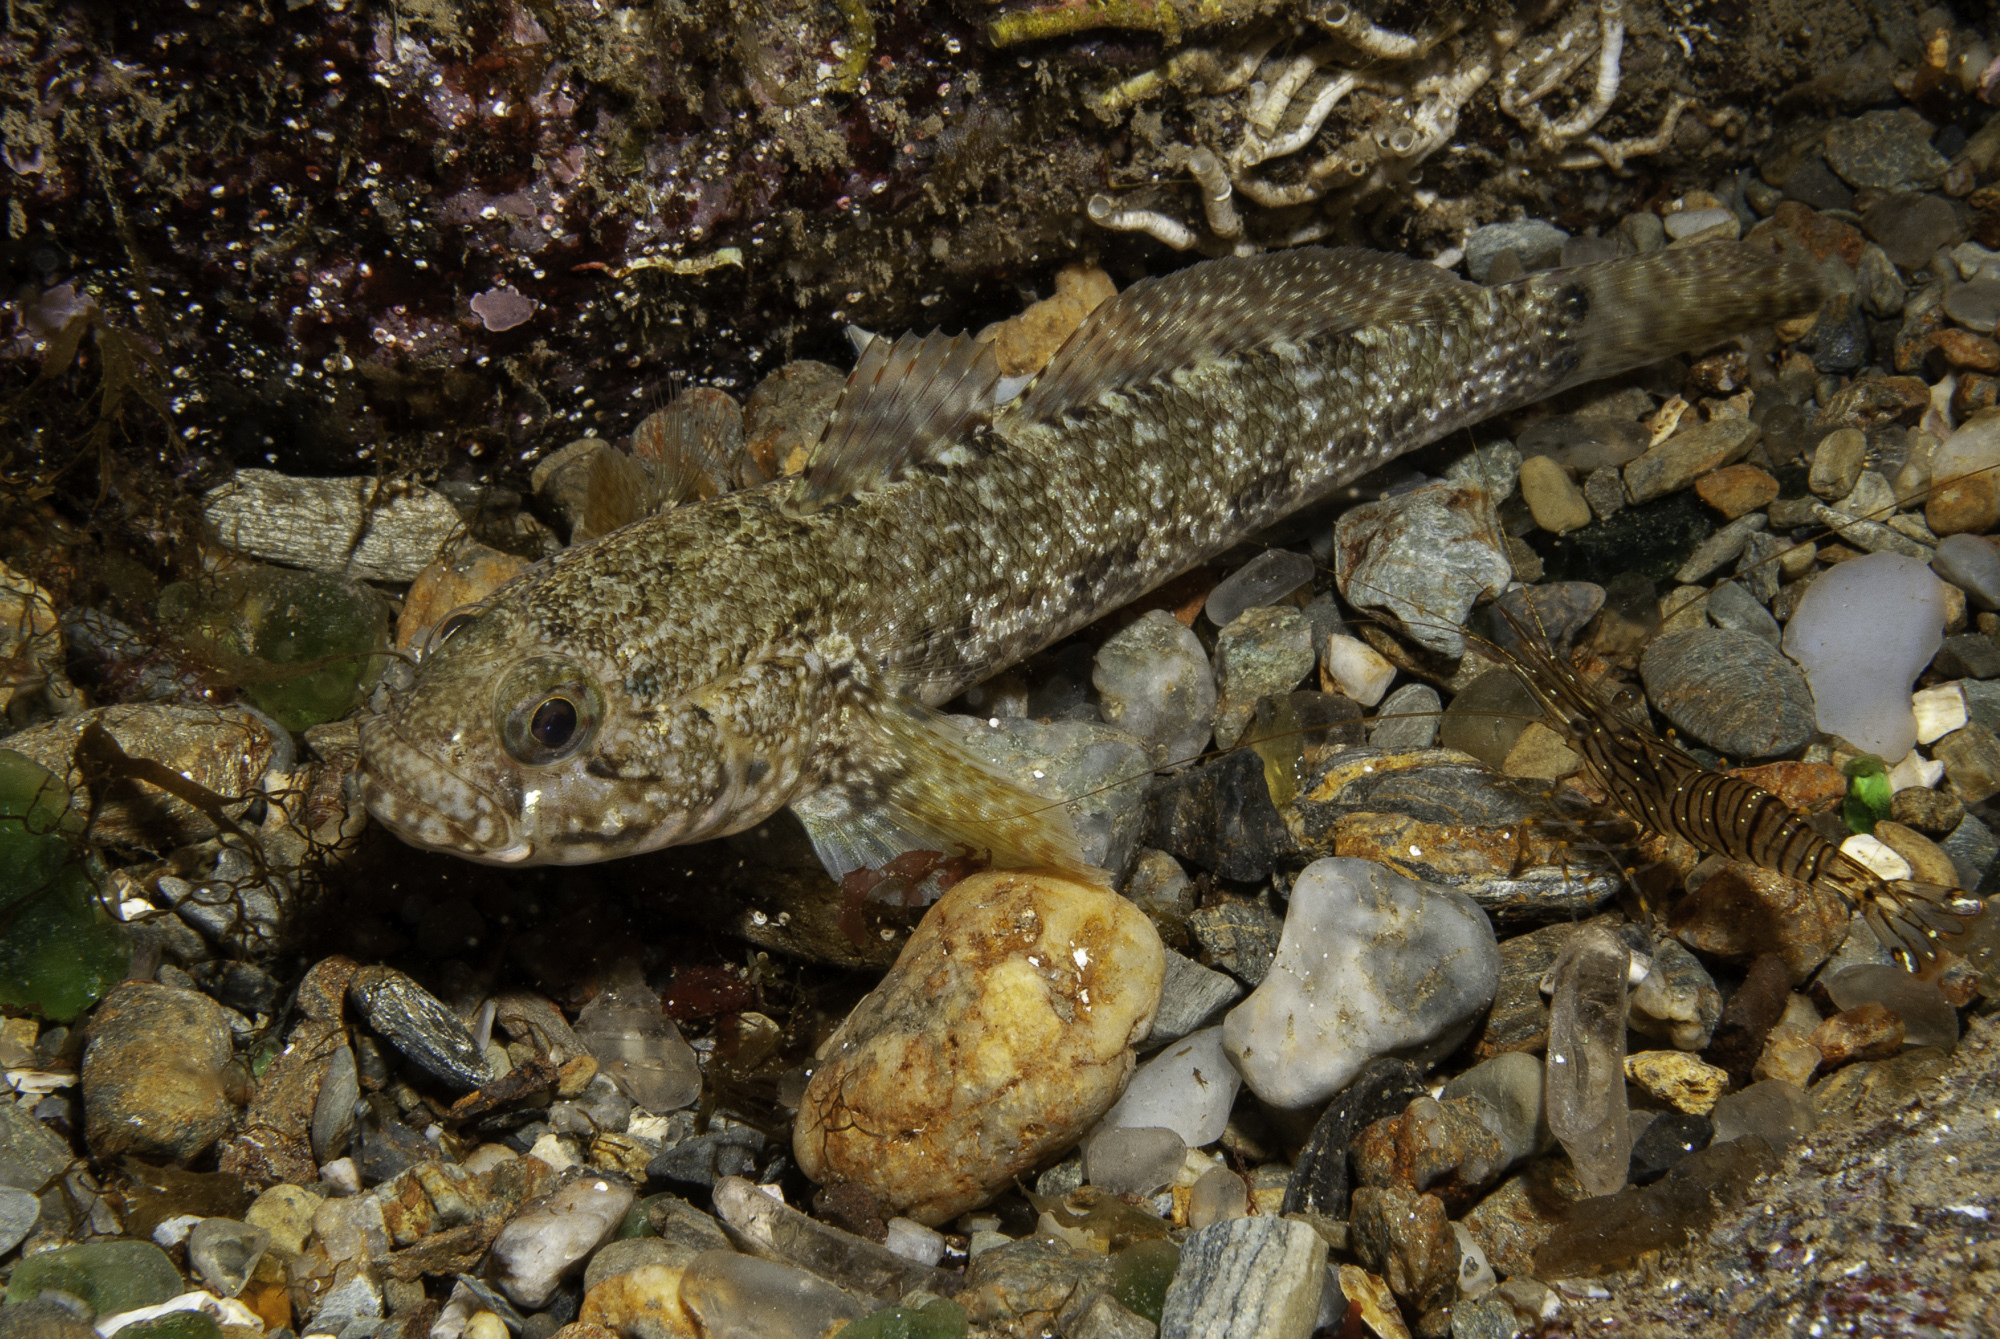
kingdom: Animalia
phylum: Chordata
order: Perciformes
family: Gobiidae
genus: Gobius
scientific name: Gobius paganellus
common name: Rock goby
